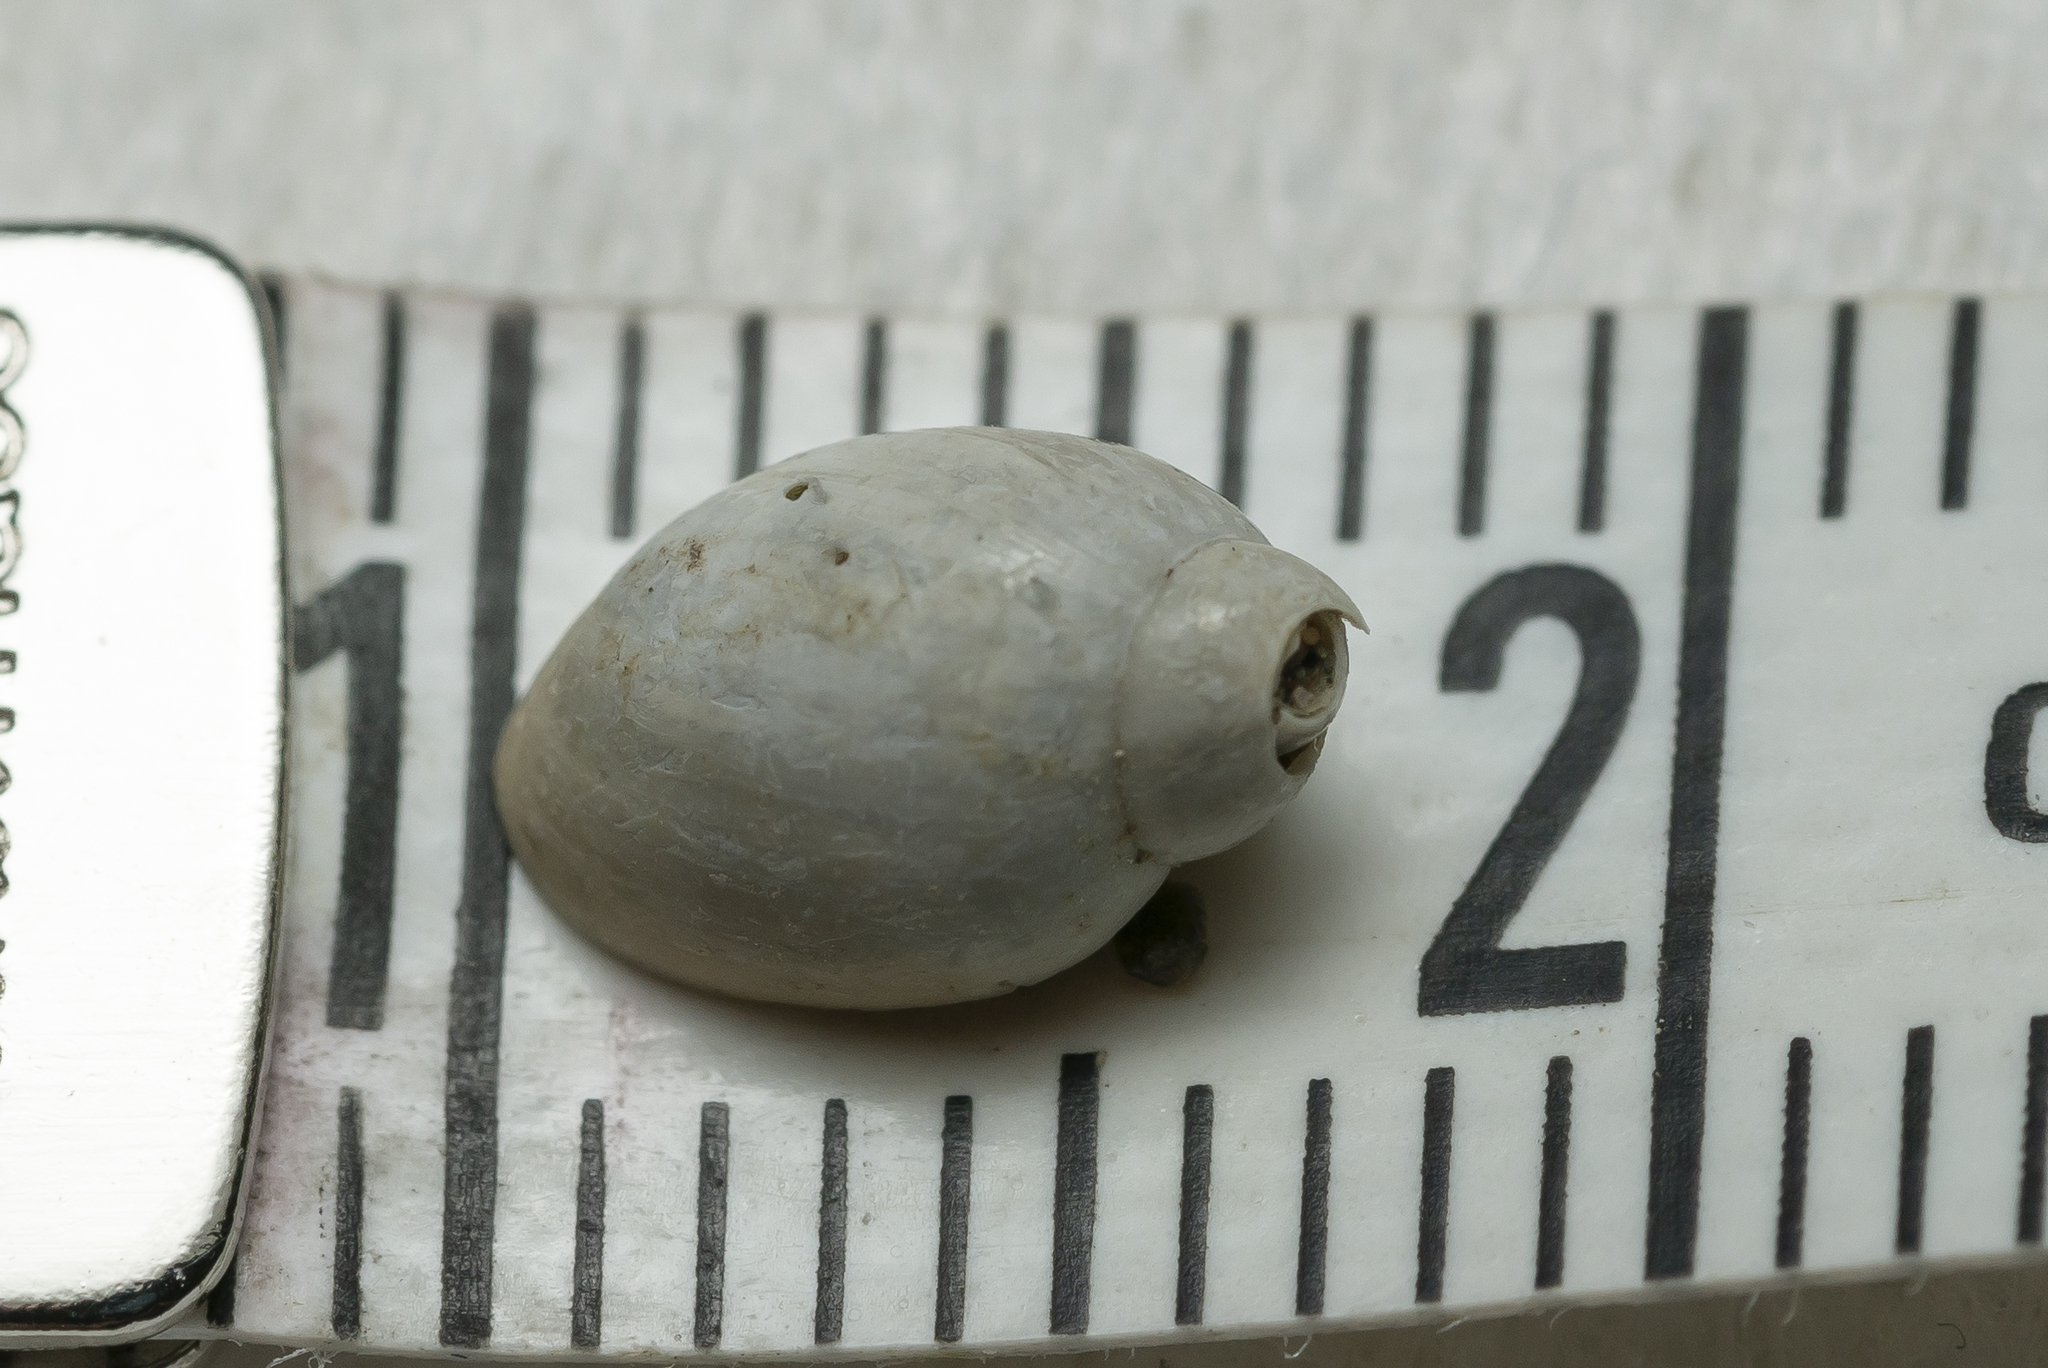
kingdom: Animalia
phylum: Mollusca
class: Gastropoda
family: Physidae
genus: Physella
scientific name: Physella acuta
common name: European physa
